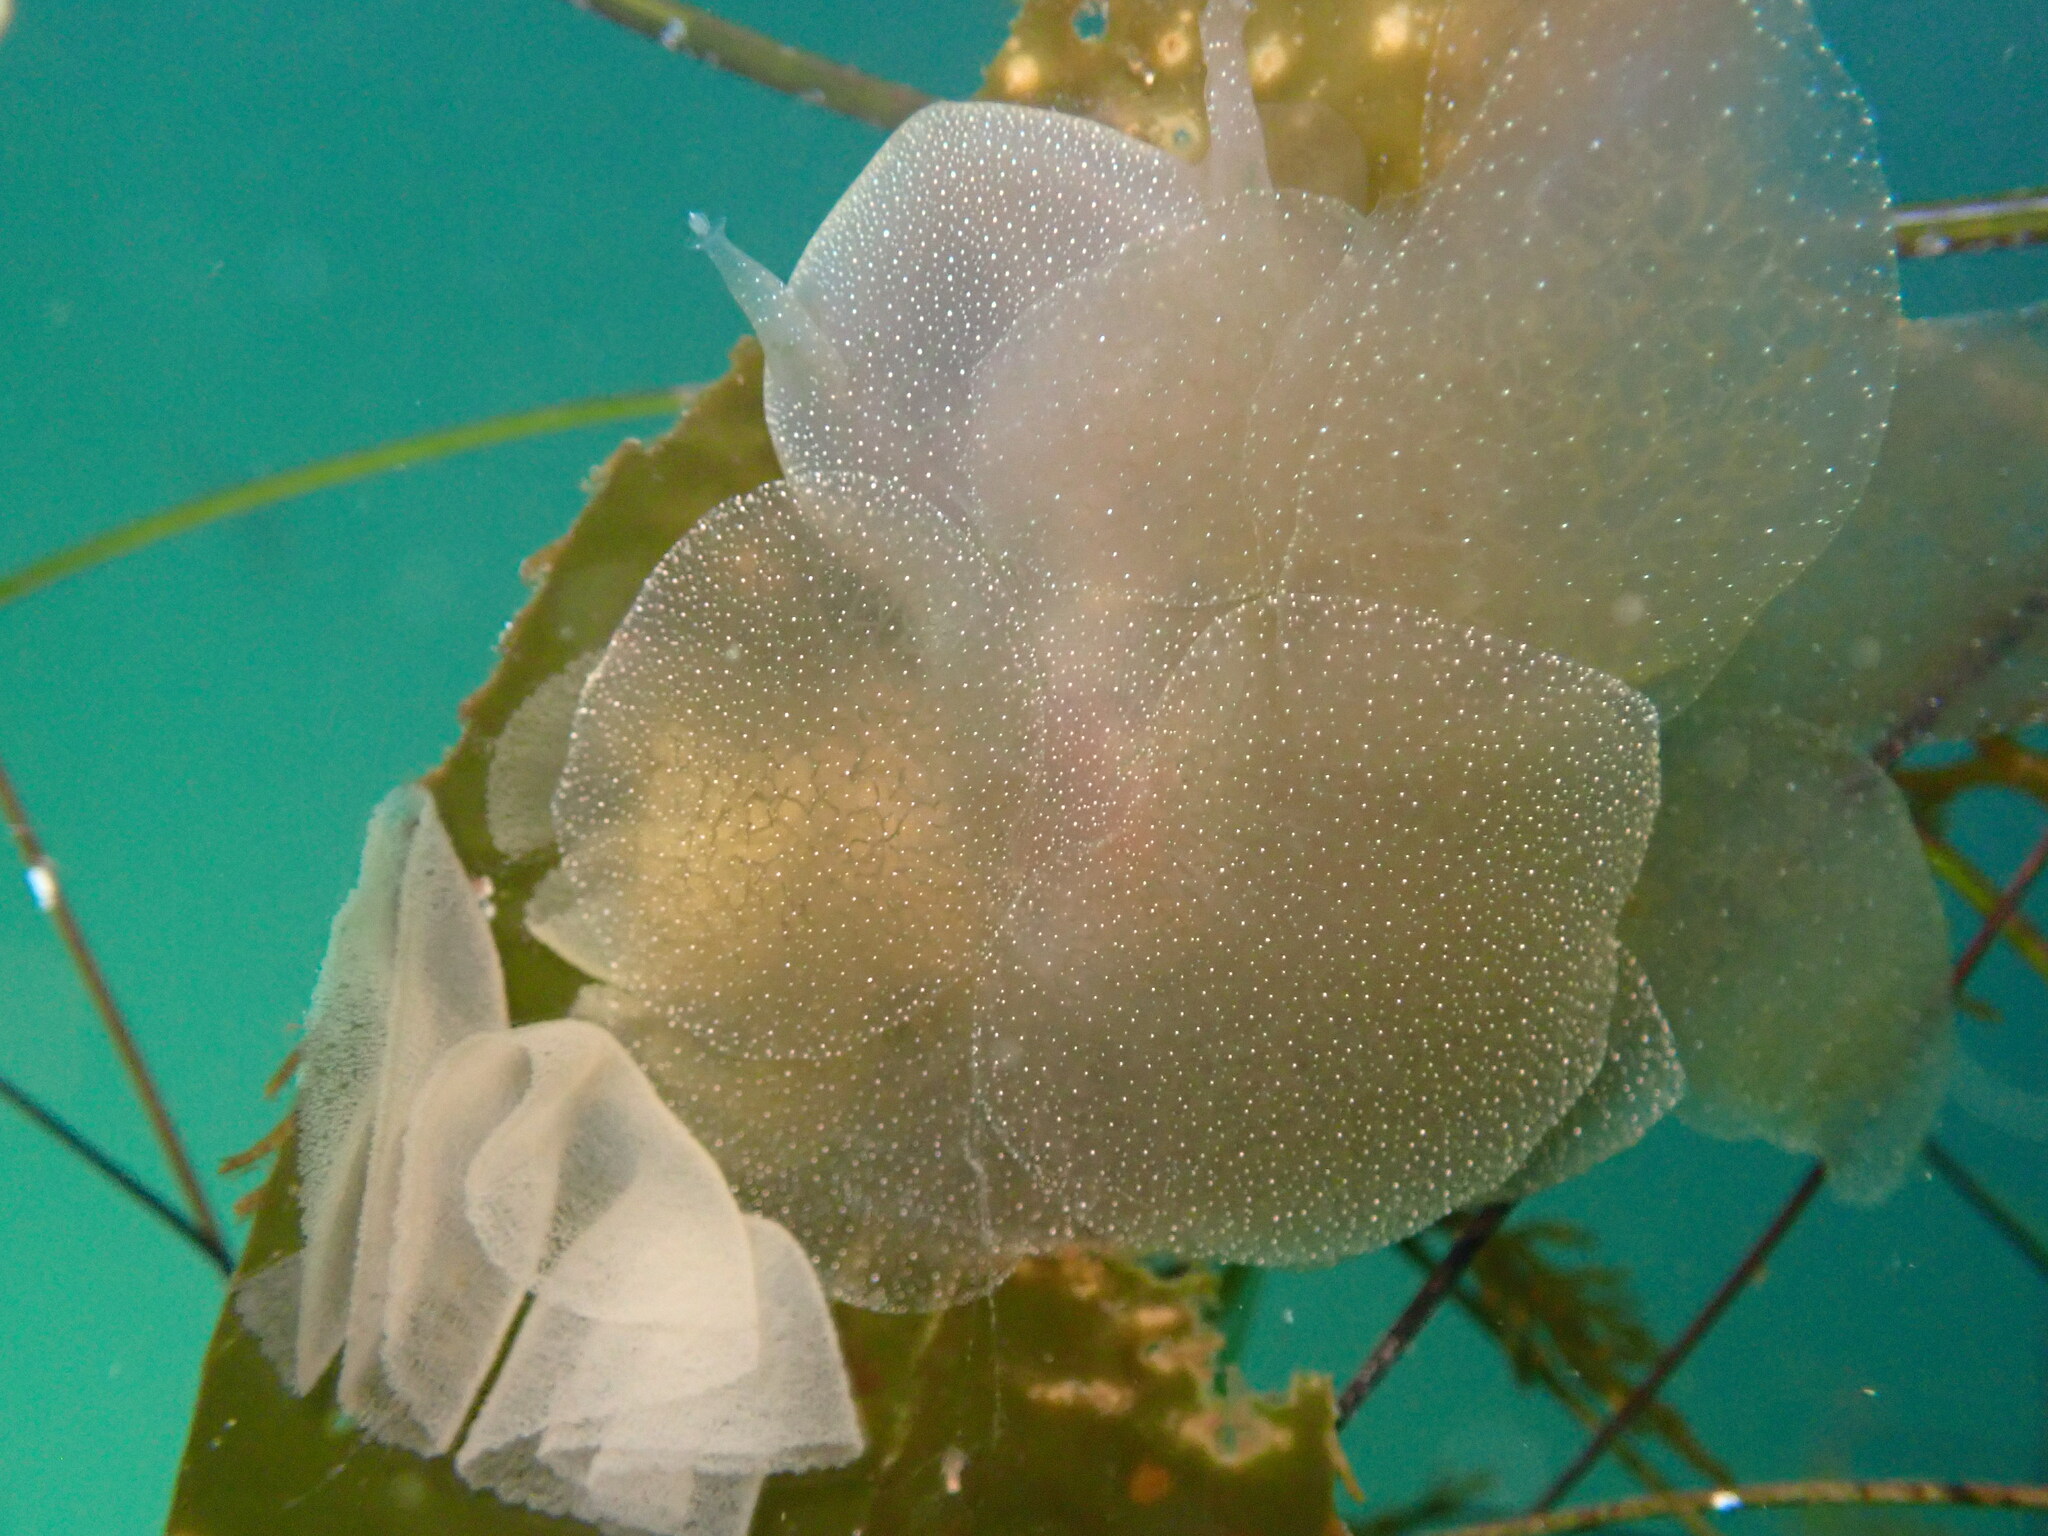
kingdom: Animalia
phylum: Mollusca
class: Gastropoda
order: Nudibranchia
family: Tethydidae
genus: Melibe
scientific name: Melibe leonina
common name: Lion nudibranch
